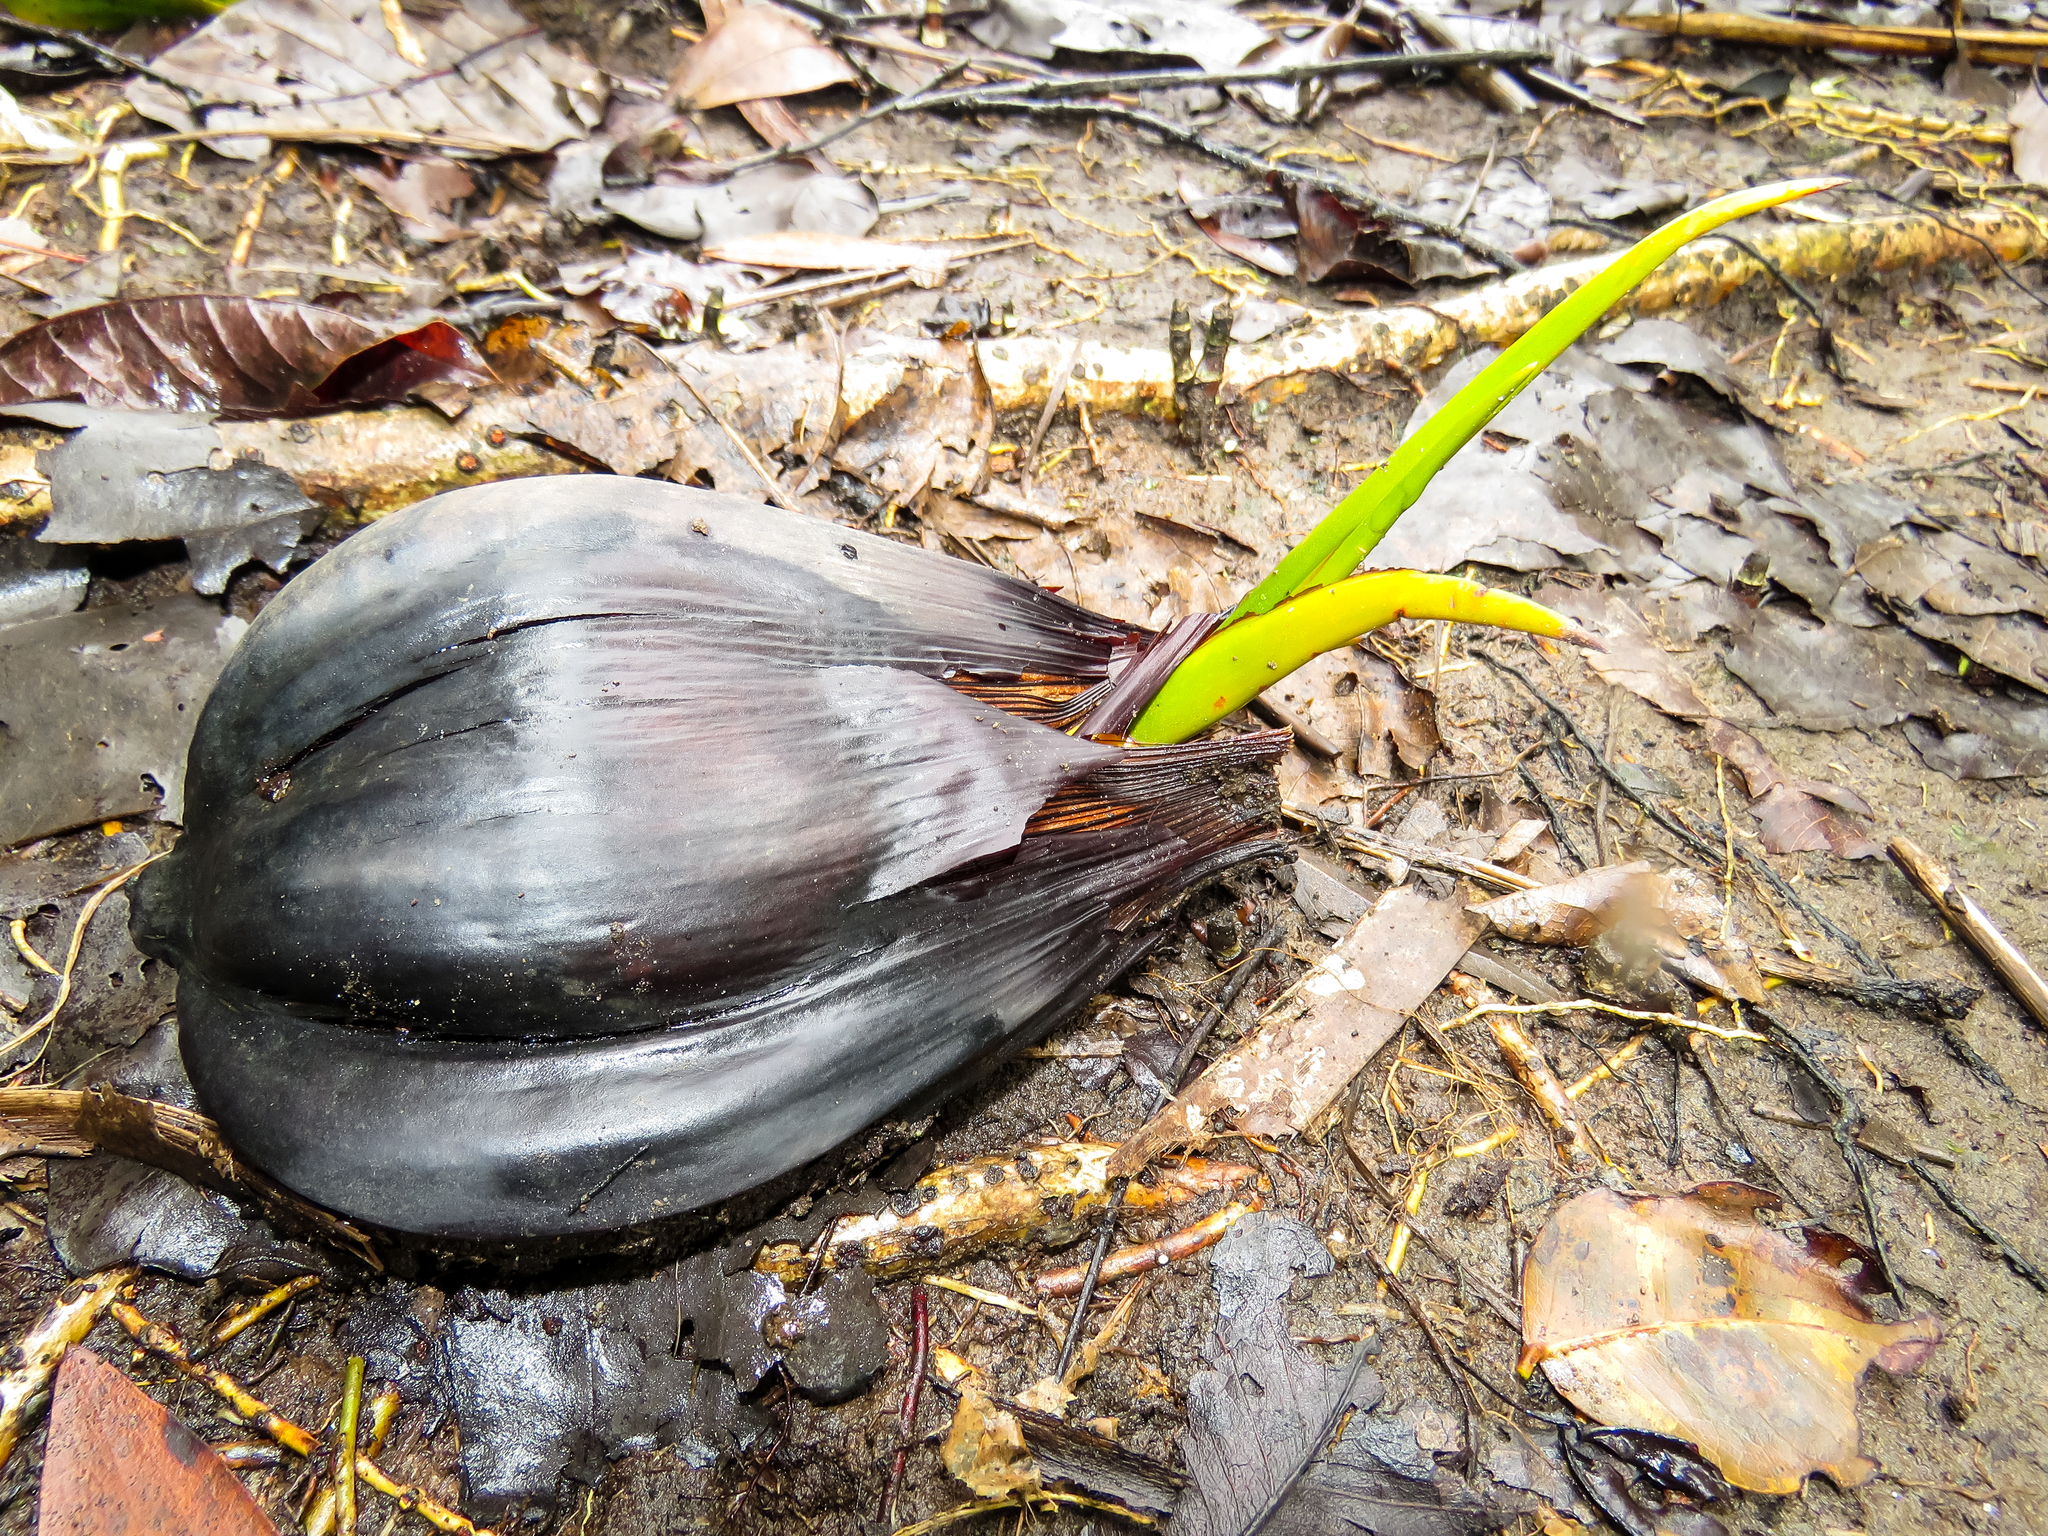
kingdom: Plantae
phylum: Tracheophyta
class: Liliopsida
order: Arecales
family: Arecaceae
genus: Nypa
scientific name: Nypa fruticans
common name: Mangrove palm
